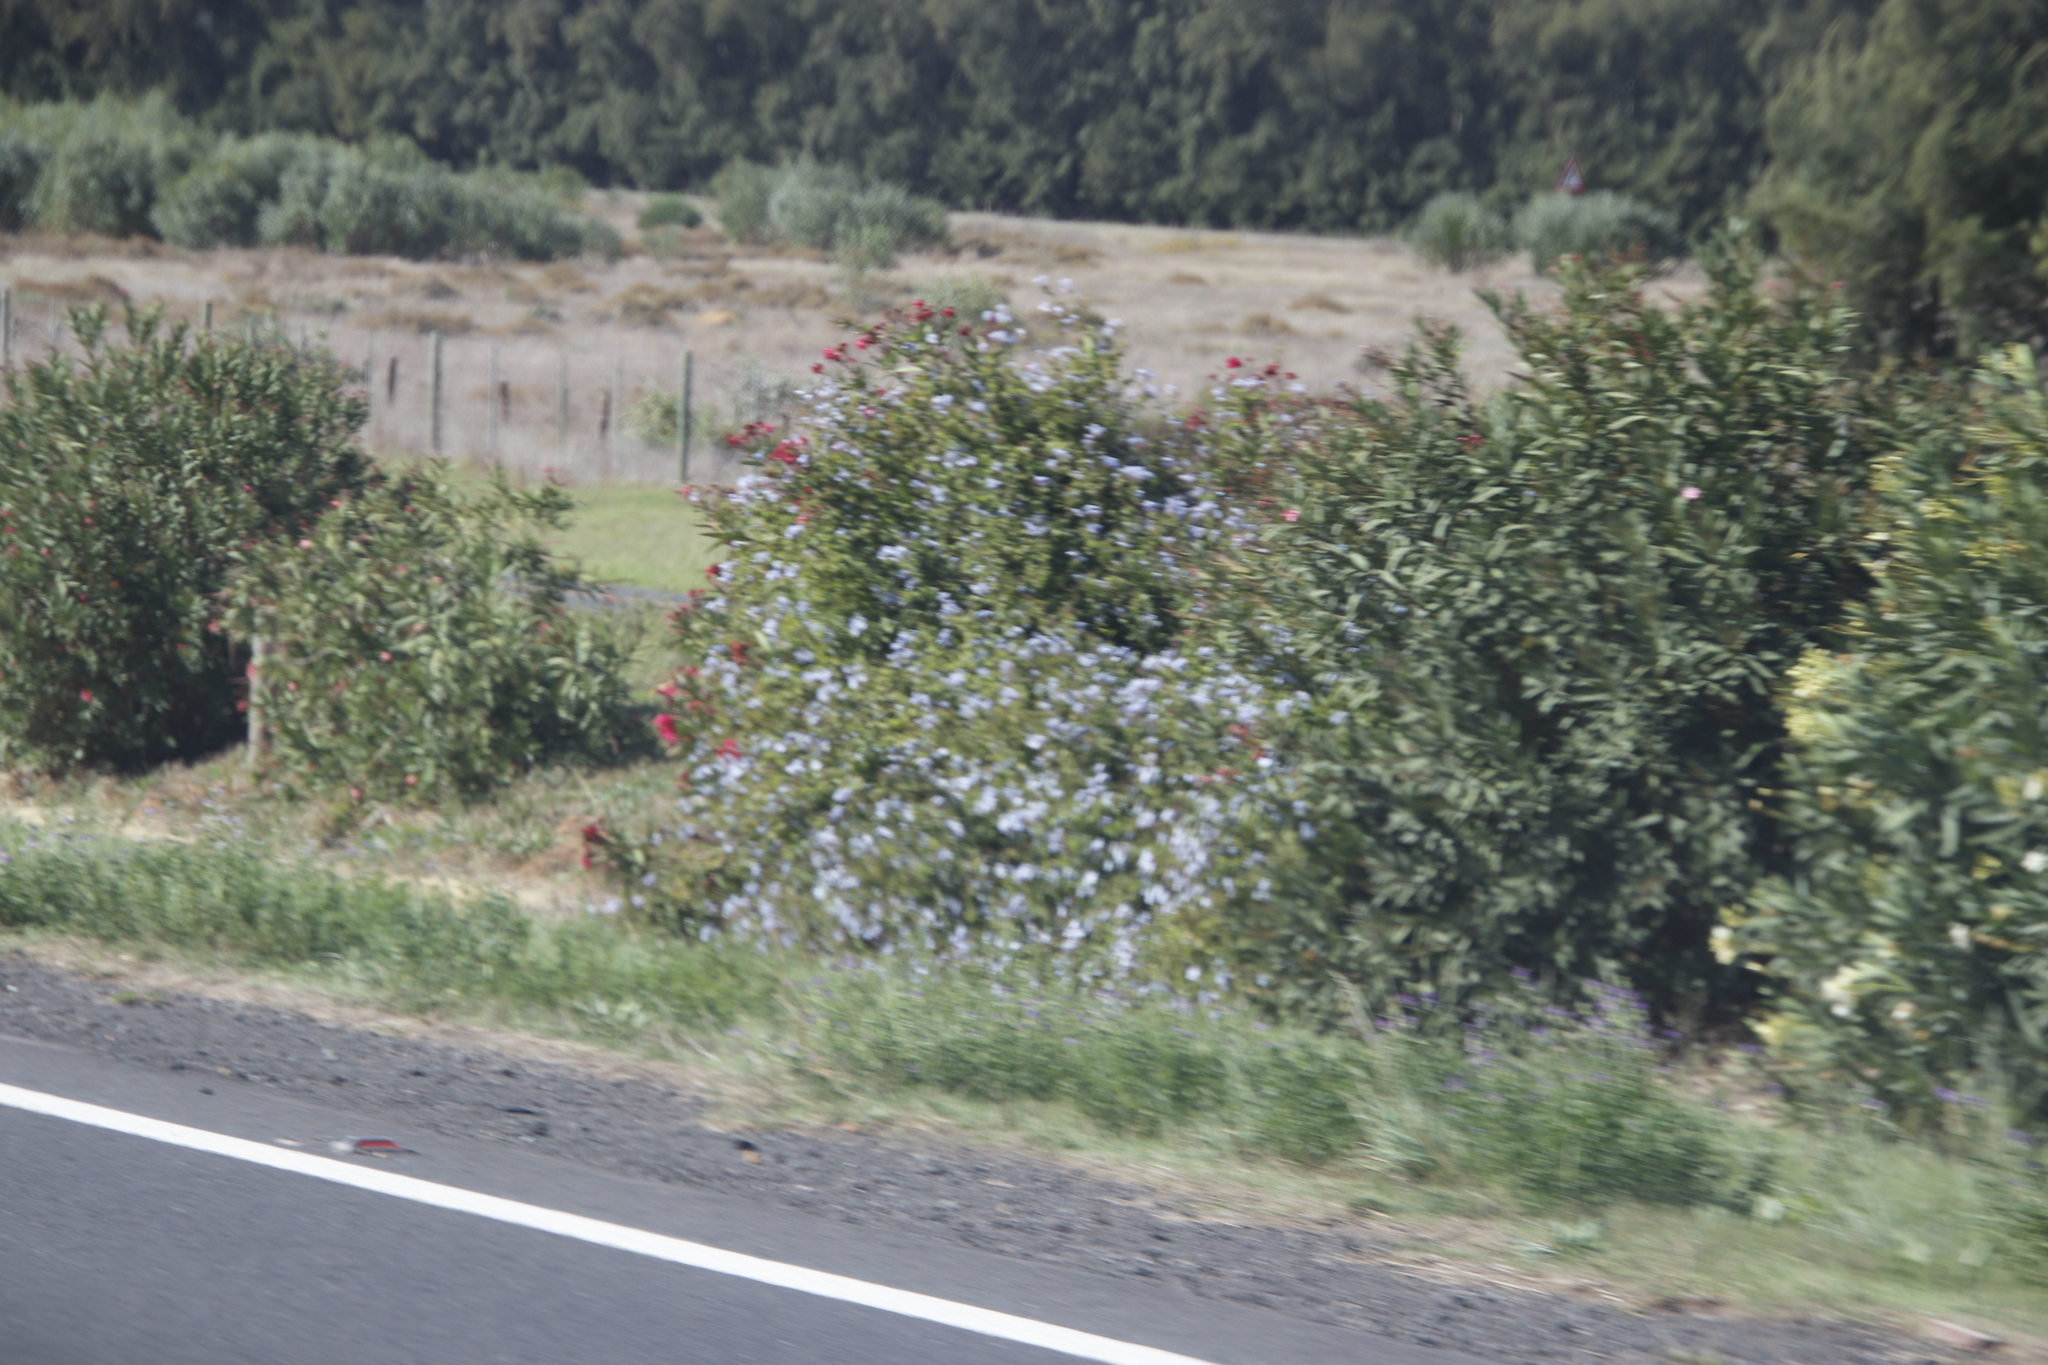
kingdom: Plantae
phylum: Tracheophyta
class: Magnoliopsida
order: Caryophyllales
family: Plumbaginaceae
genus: Plumbago
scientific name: Plumbago auriculata
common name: Cape leadwort
